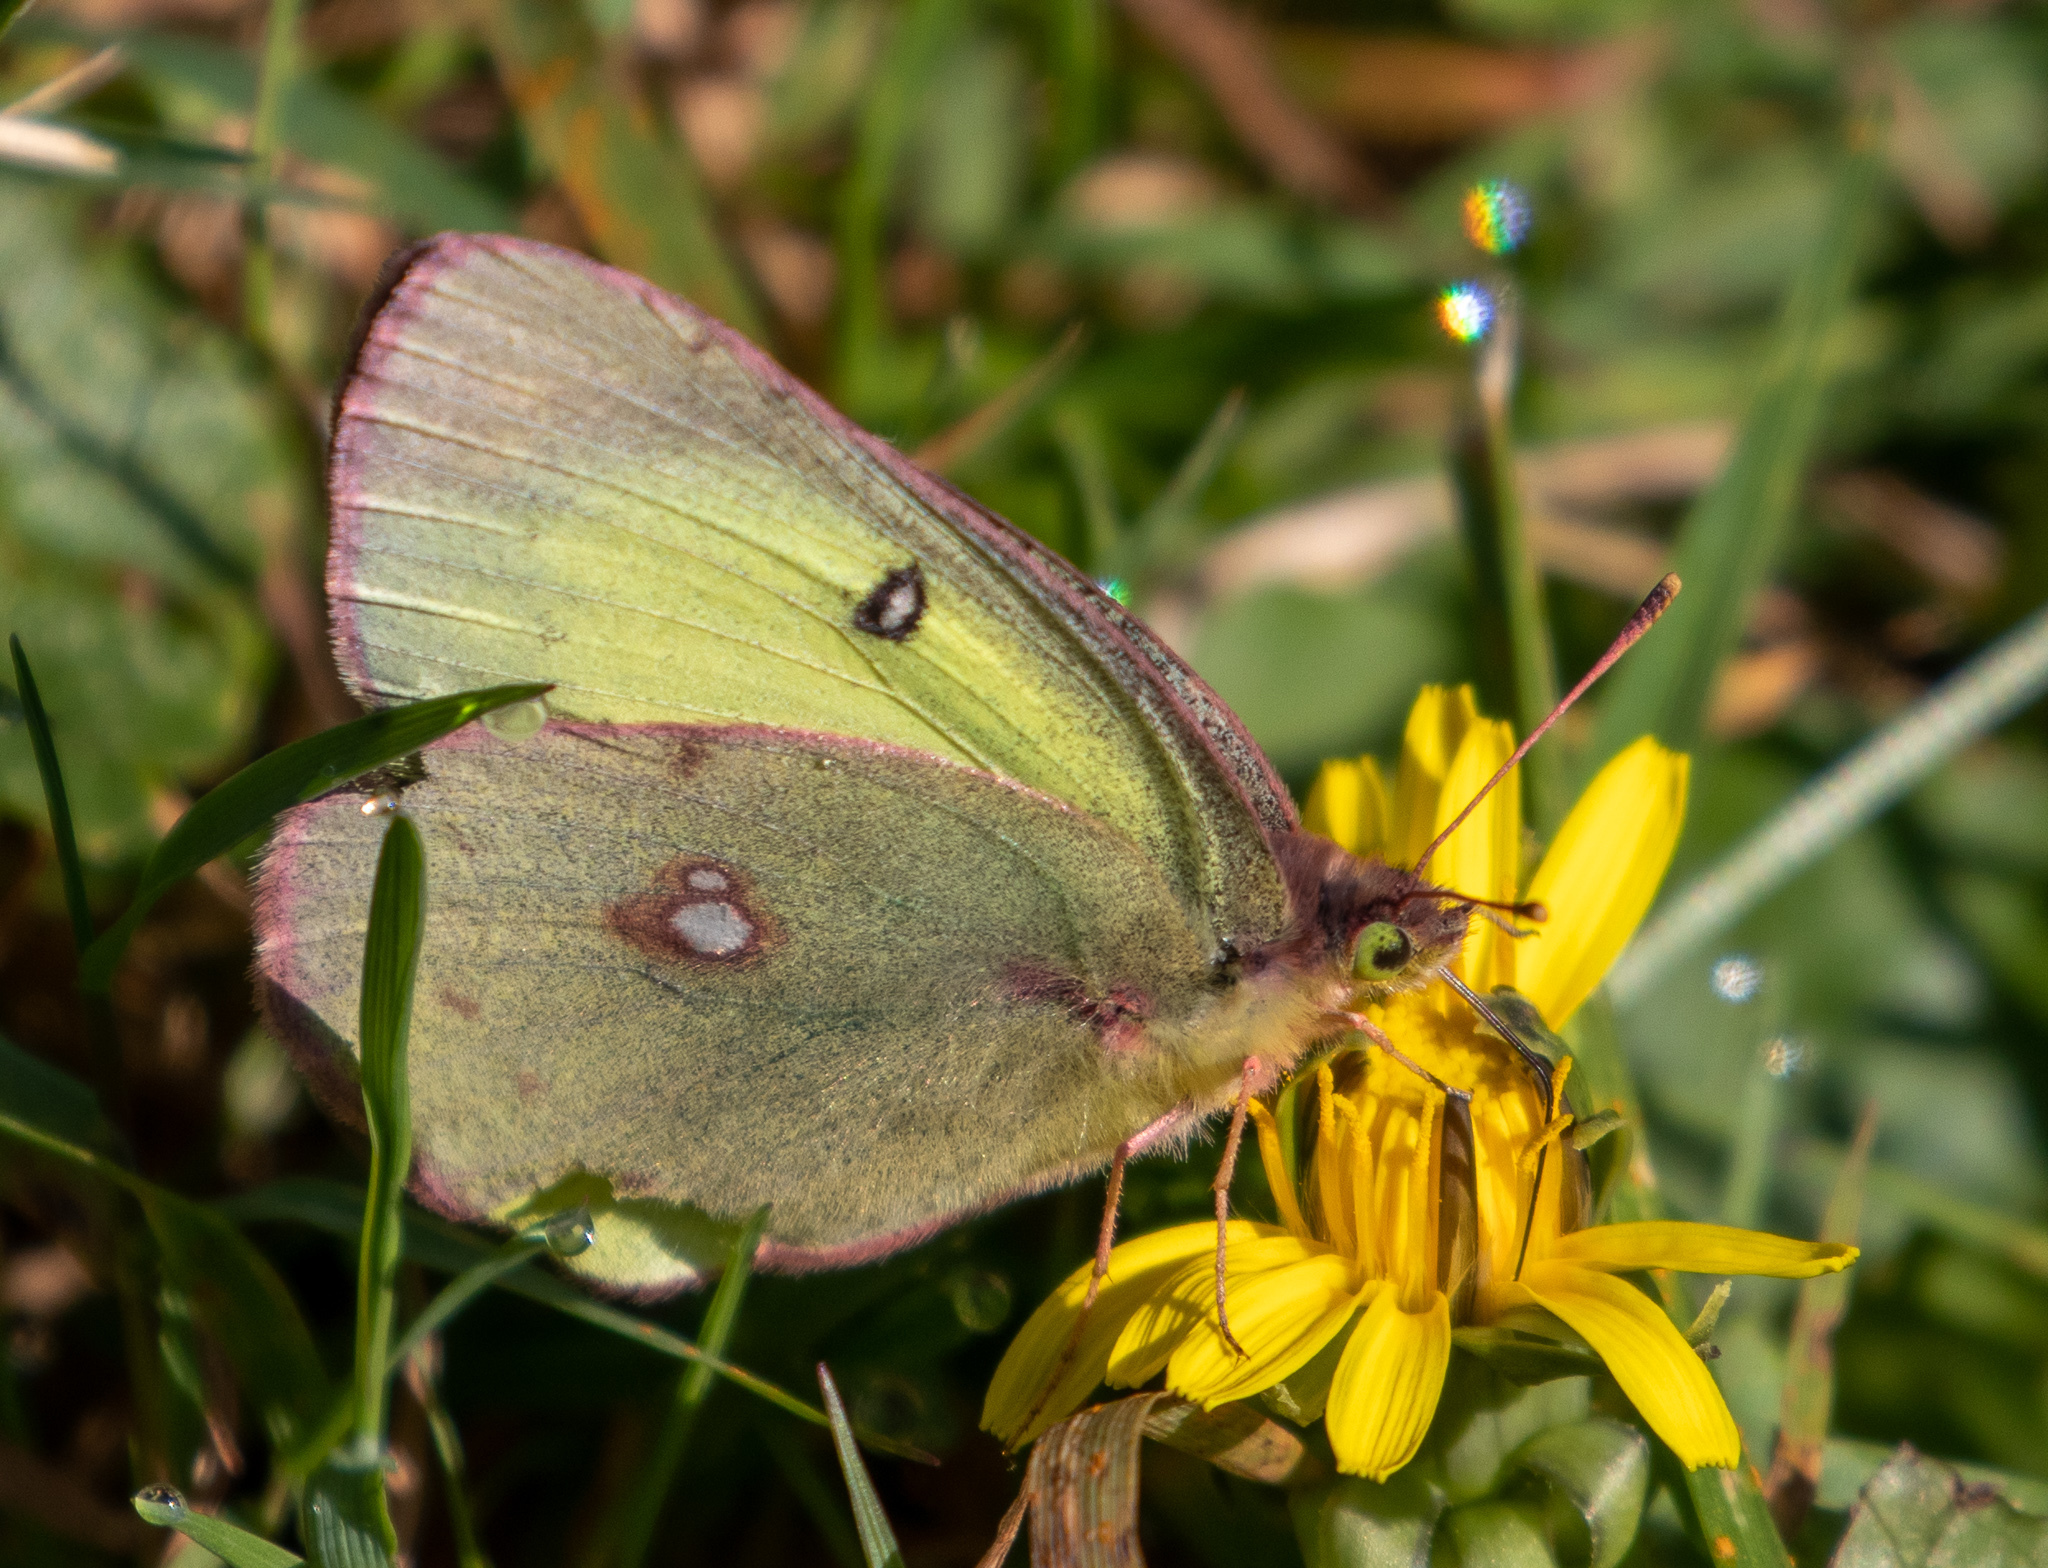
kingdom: Animalia
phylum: Arthropoda
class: Insecta
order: Lepidoptera
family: Pieridae
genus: Colias
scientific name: Colias philodice
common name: Clouded sulphur
